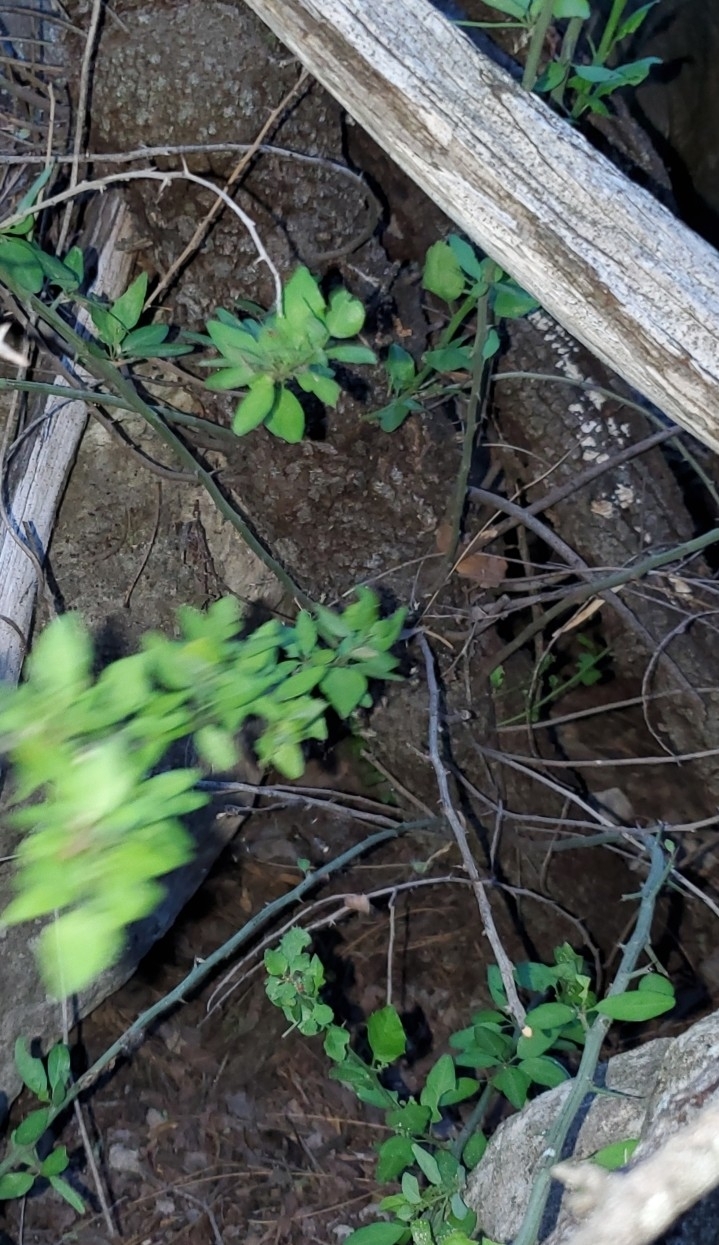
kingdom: Plantae
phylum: Tracheophyta
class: Magnoliopsida
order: Rosales
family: Rhamnaceae
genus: Sarcomphalus
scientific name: Sarcomphalus obtusifolius
